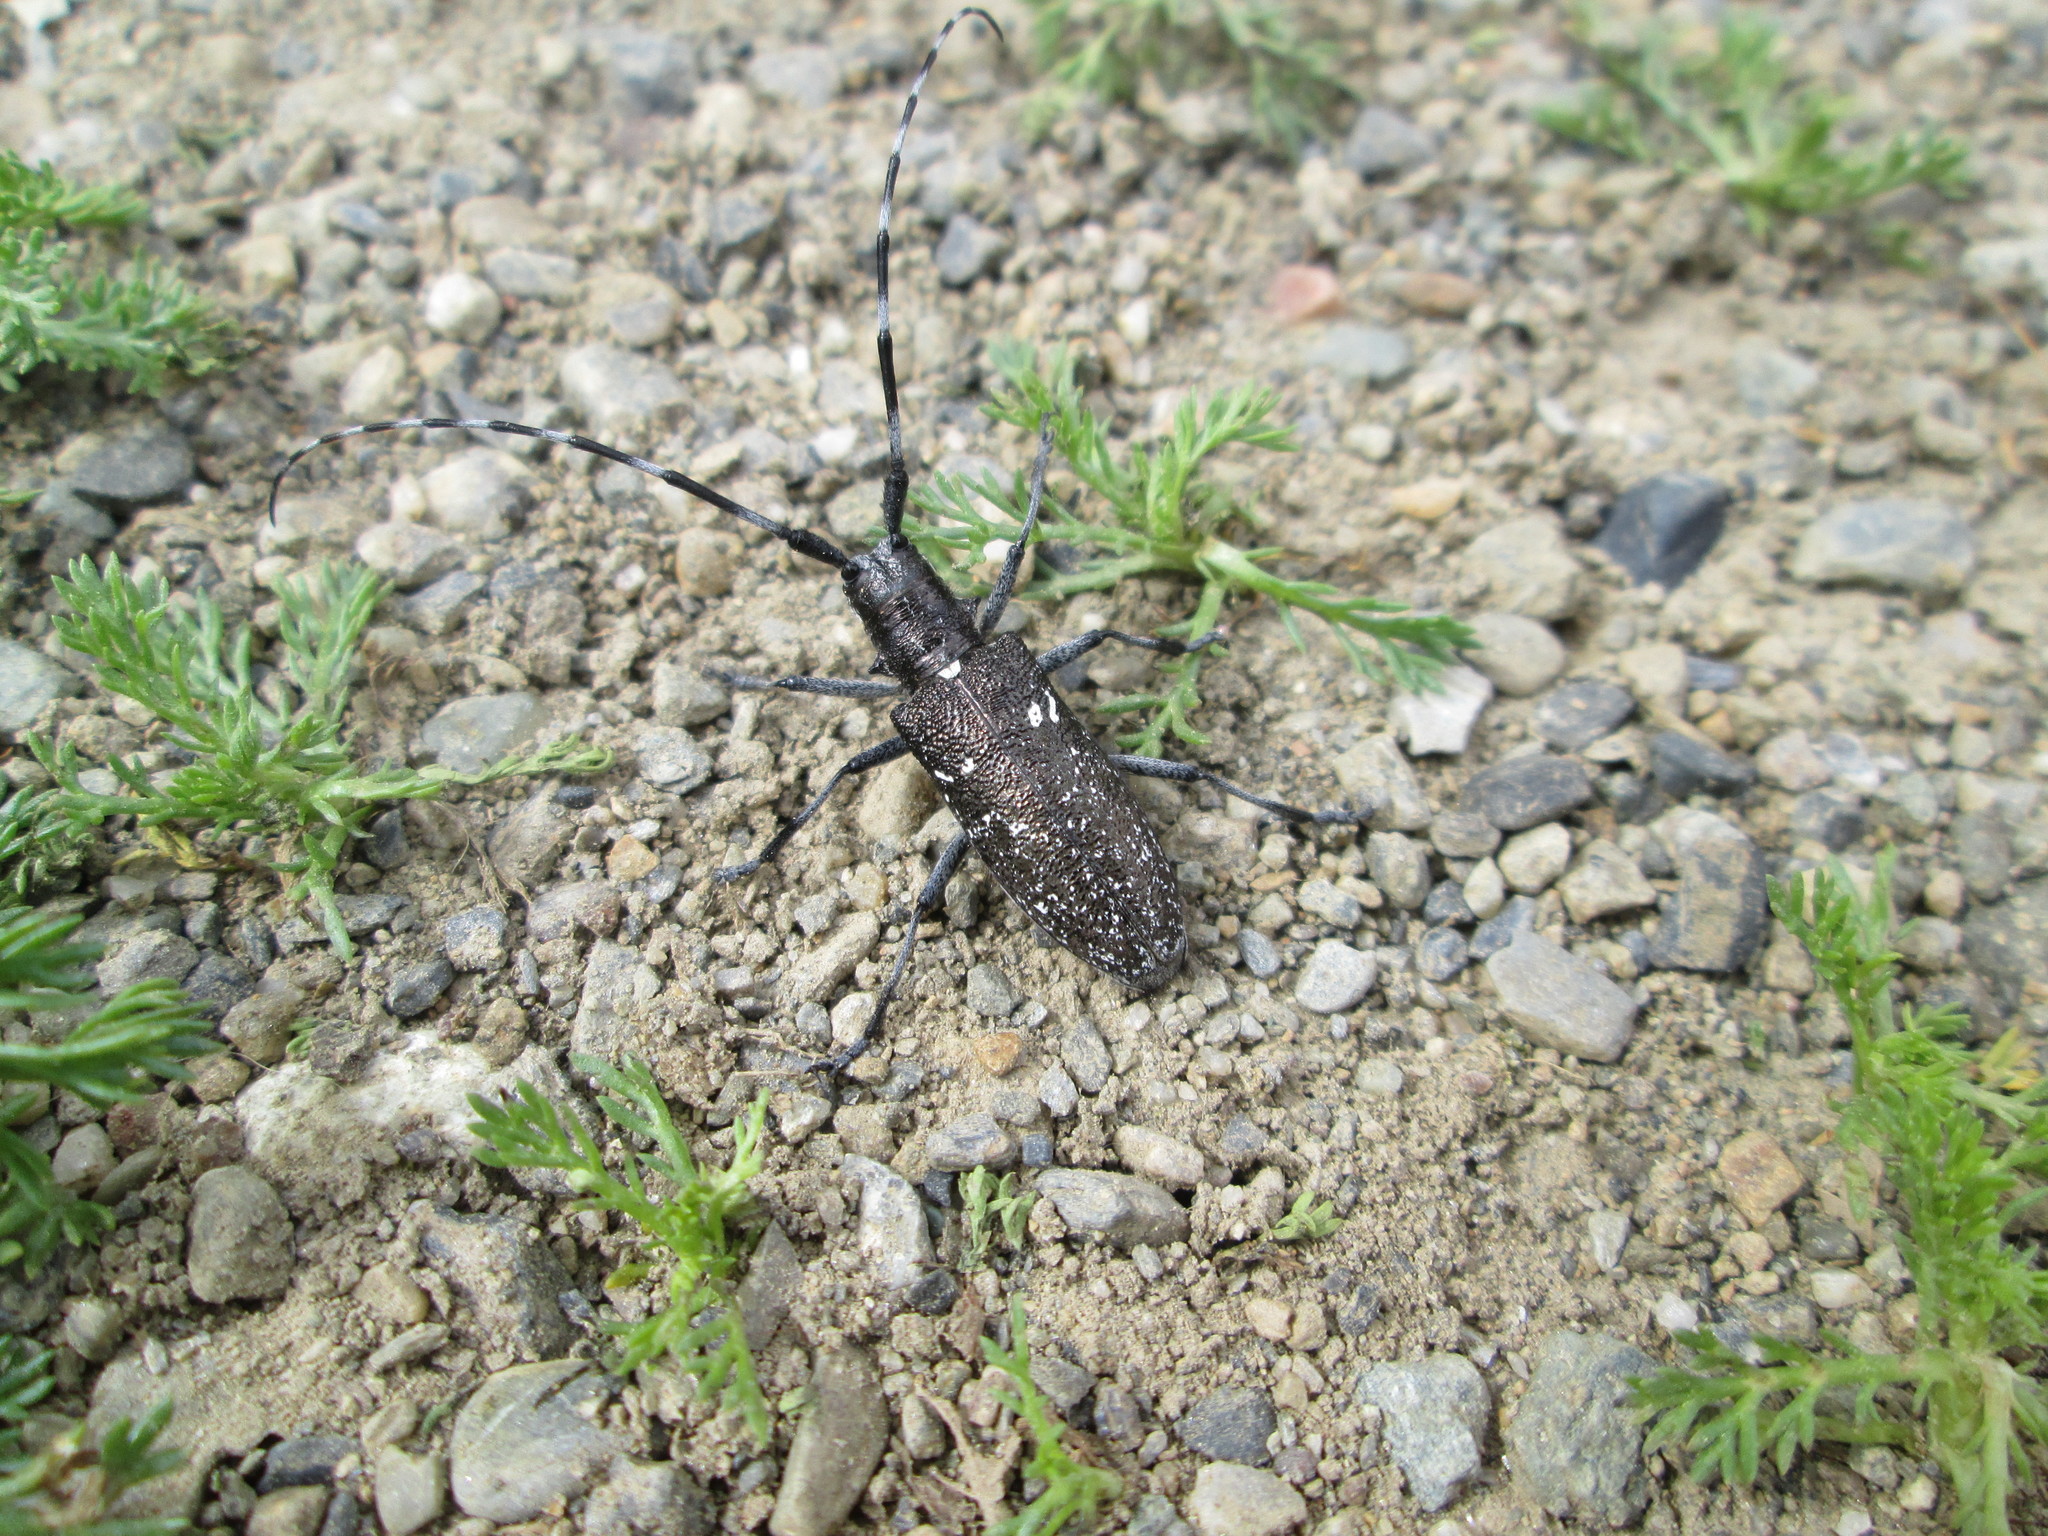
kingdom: Animalia
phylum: Arthropoda
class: Insecta
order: Coleoptera
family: Cerambycidae
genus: Monochamus
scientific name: Monochamus scutellatus
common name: White-spotted sawyer beetle
